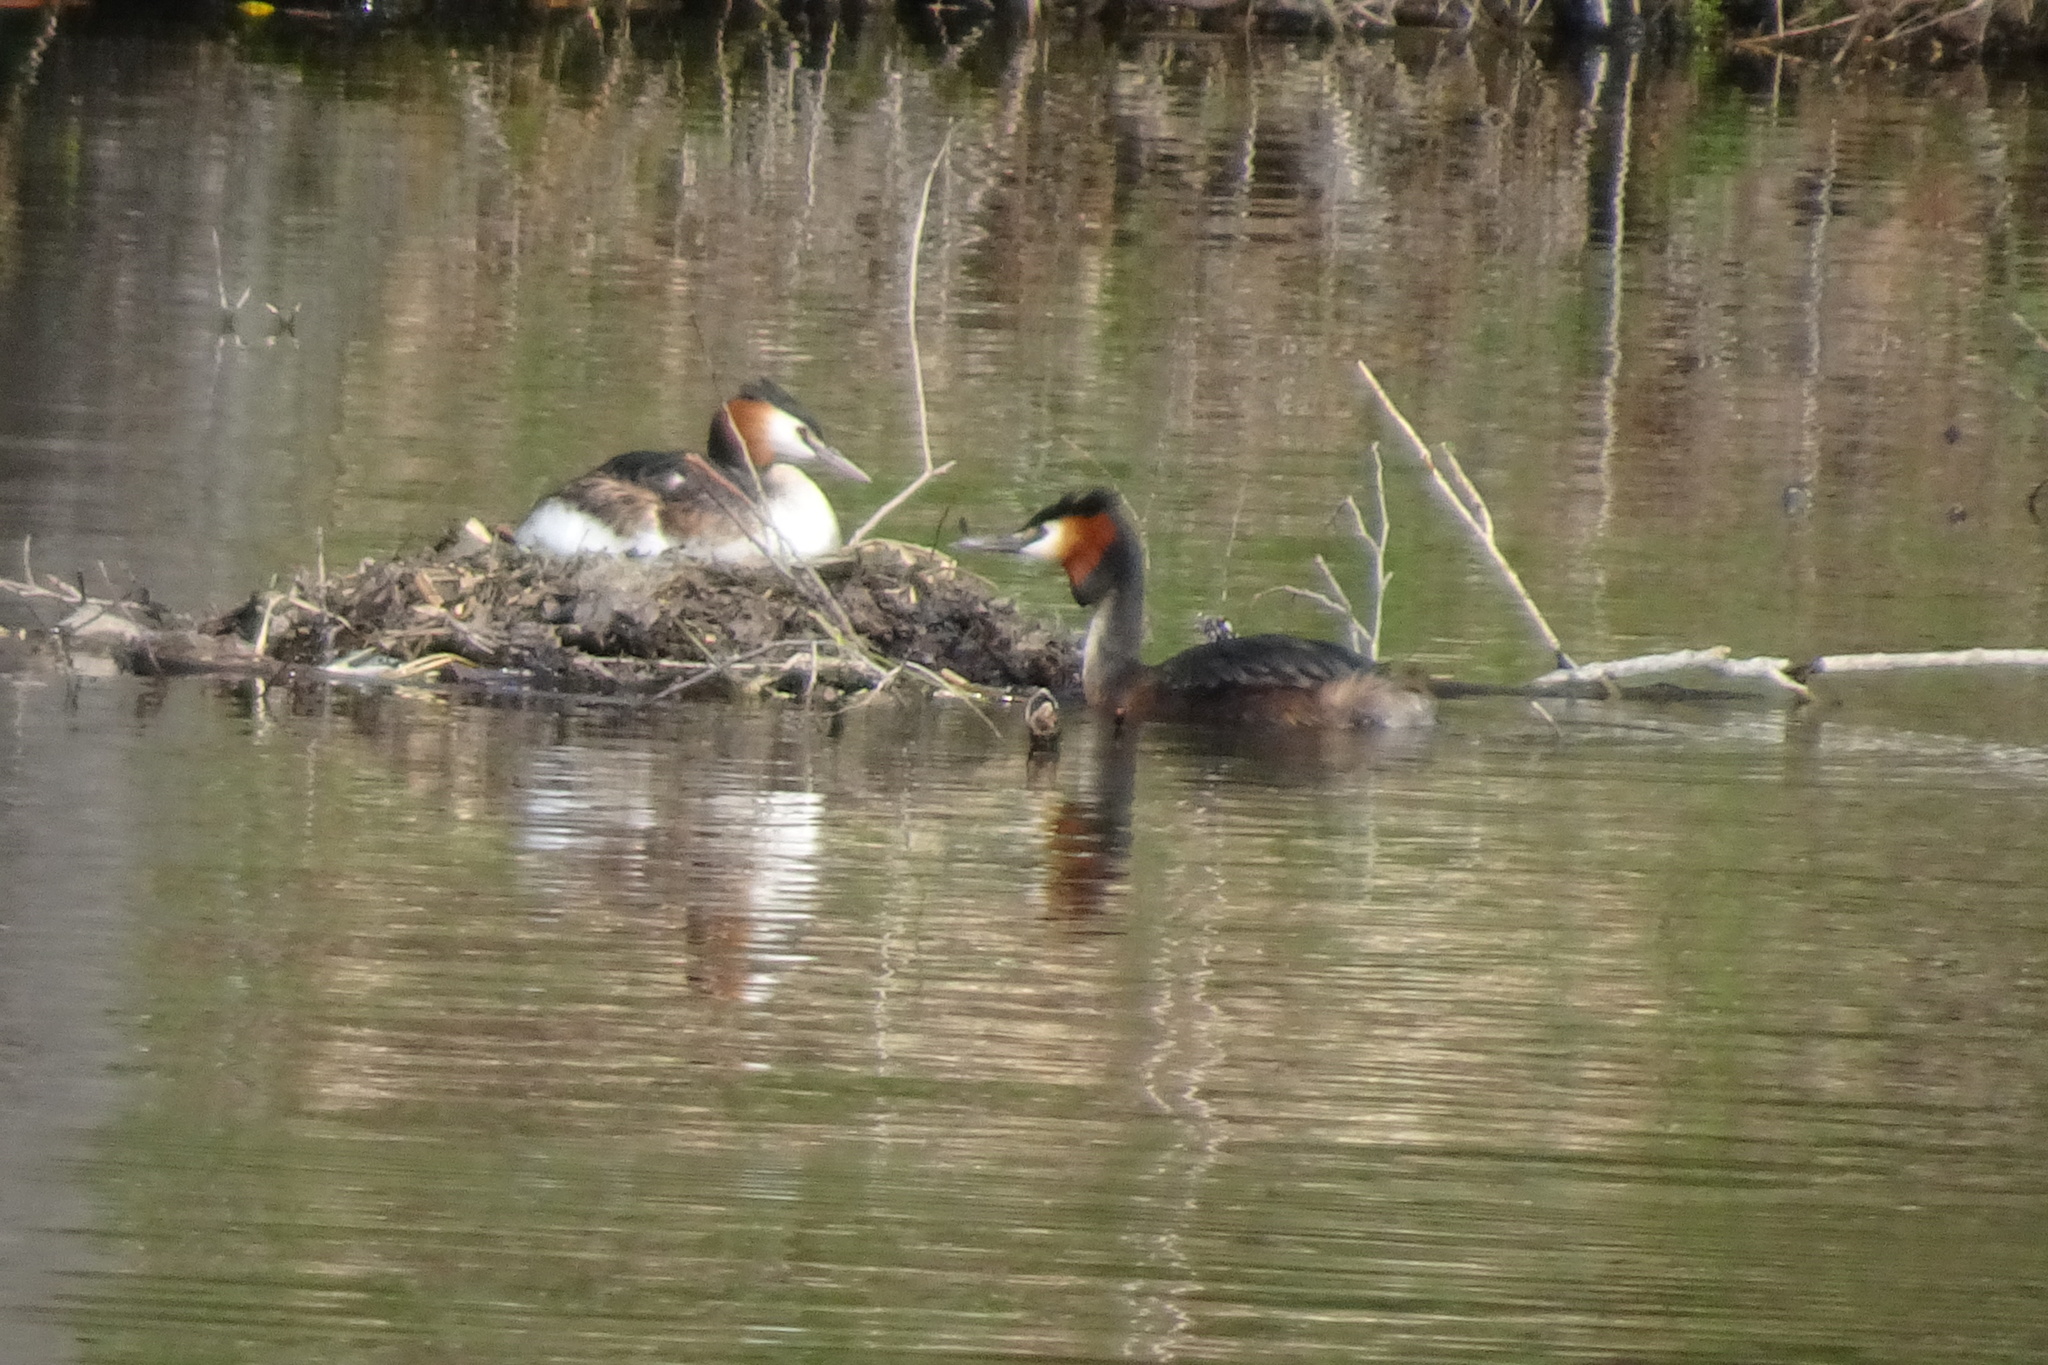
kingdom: Animalia
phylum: Chordata
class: Aves
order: Podicipediformes
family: Podicipedidae
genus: Podiceps
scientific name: Podiceps cristatus
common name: Great crested grebe
